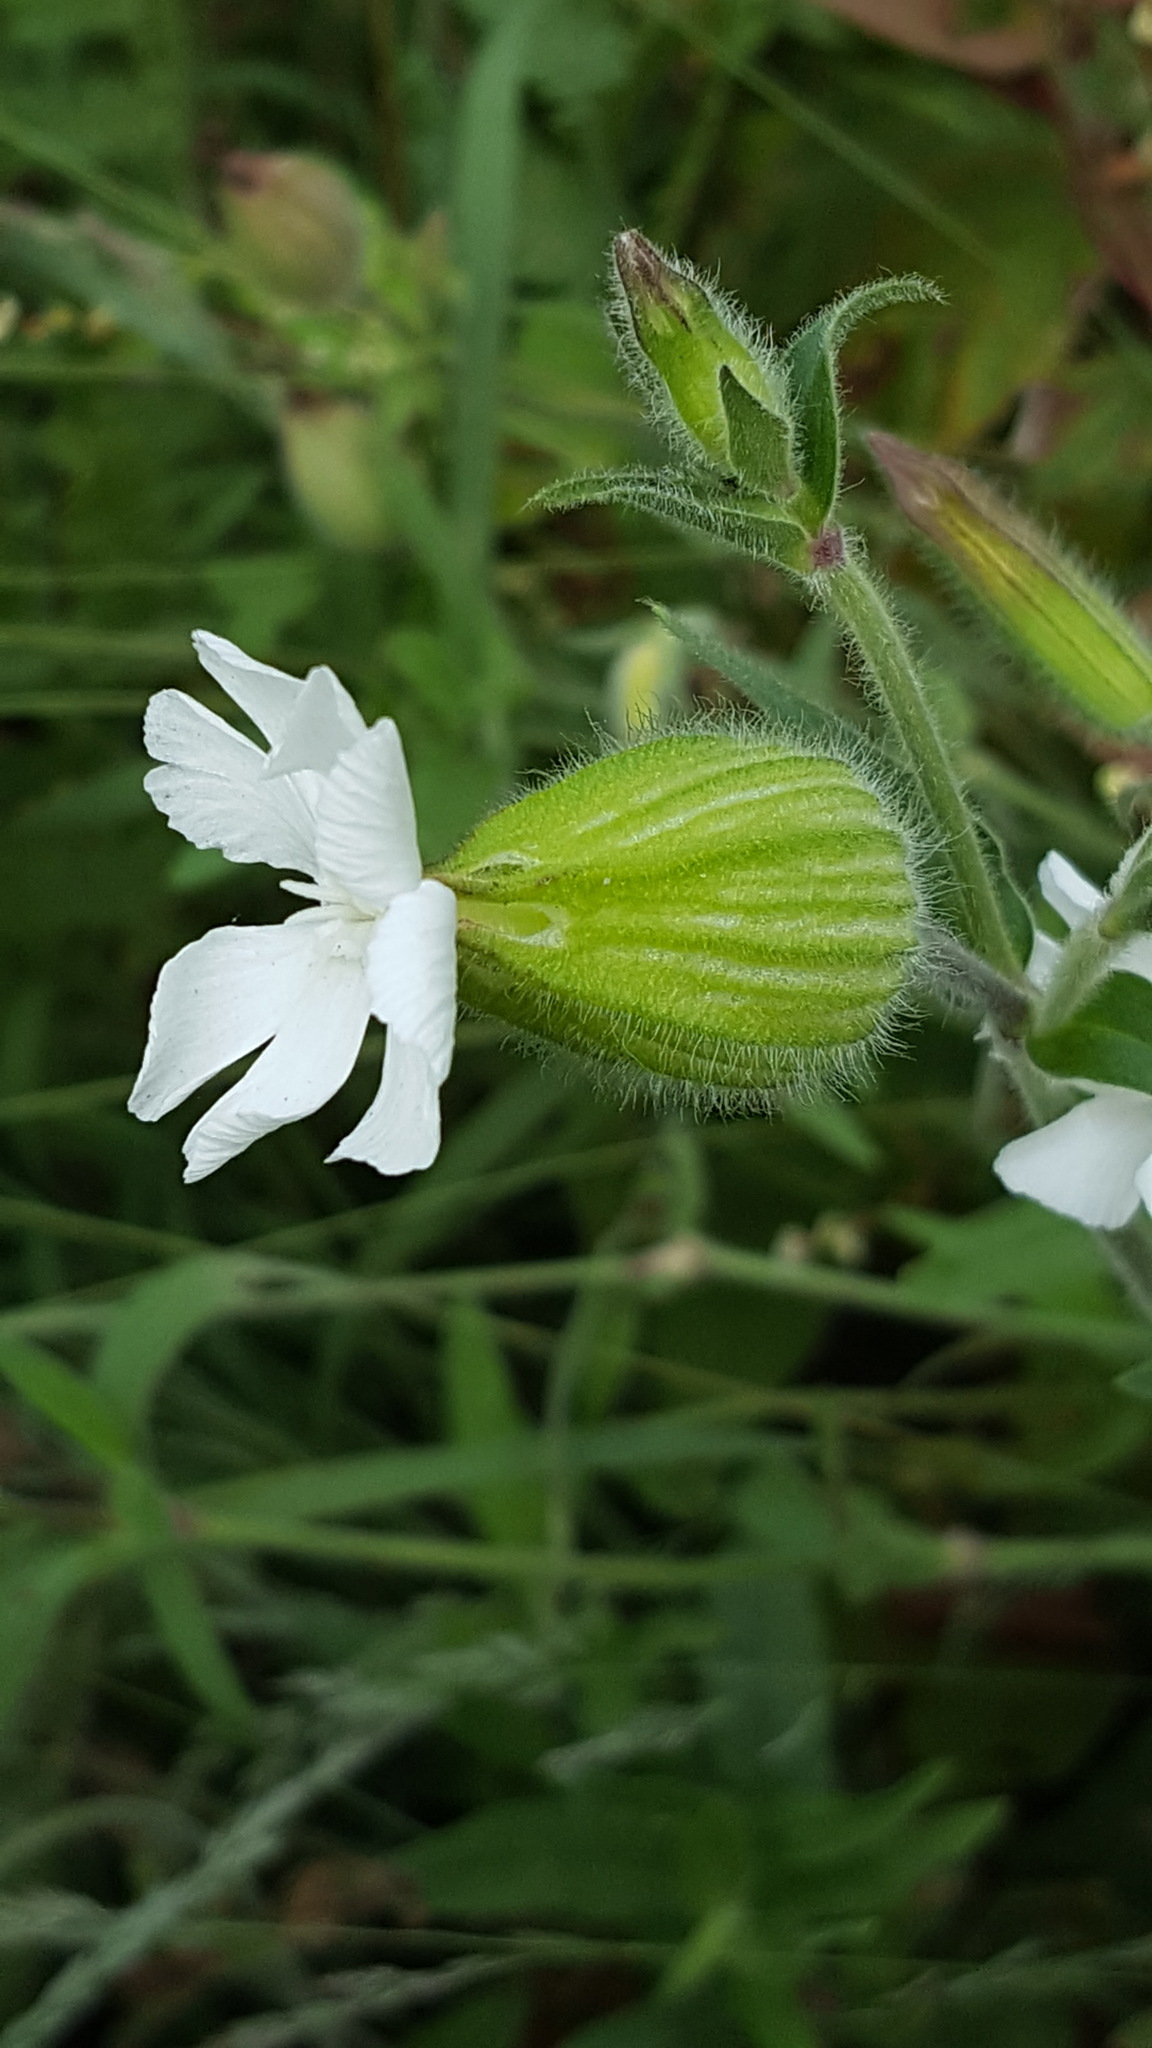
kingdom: Plantae
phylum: Tracheophyta
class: Magnoliopsida
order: Caryophyllales
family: Caryophyllaceae
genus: Silene
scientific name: Silene latifolia
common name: White campion
